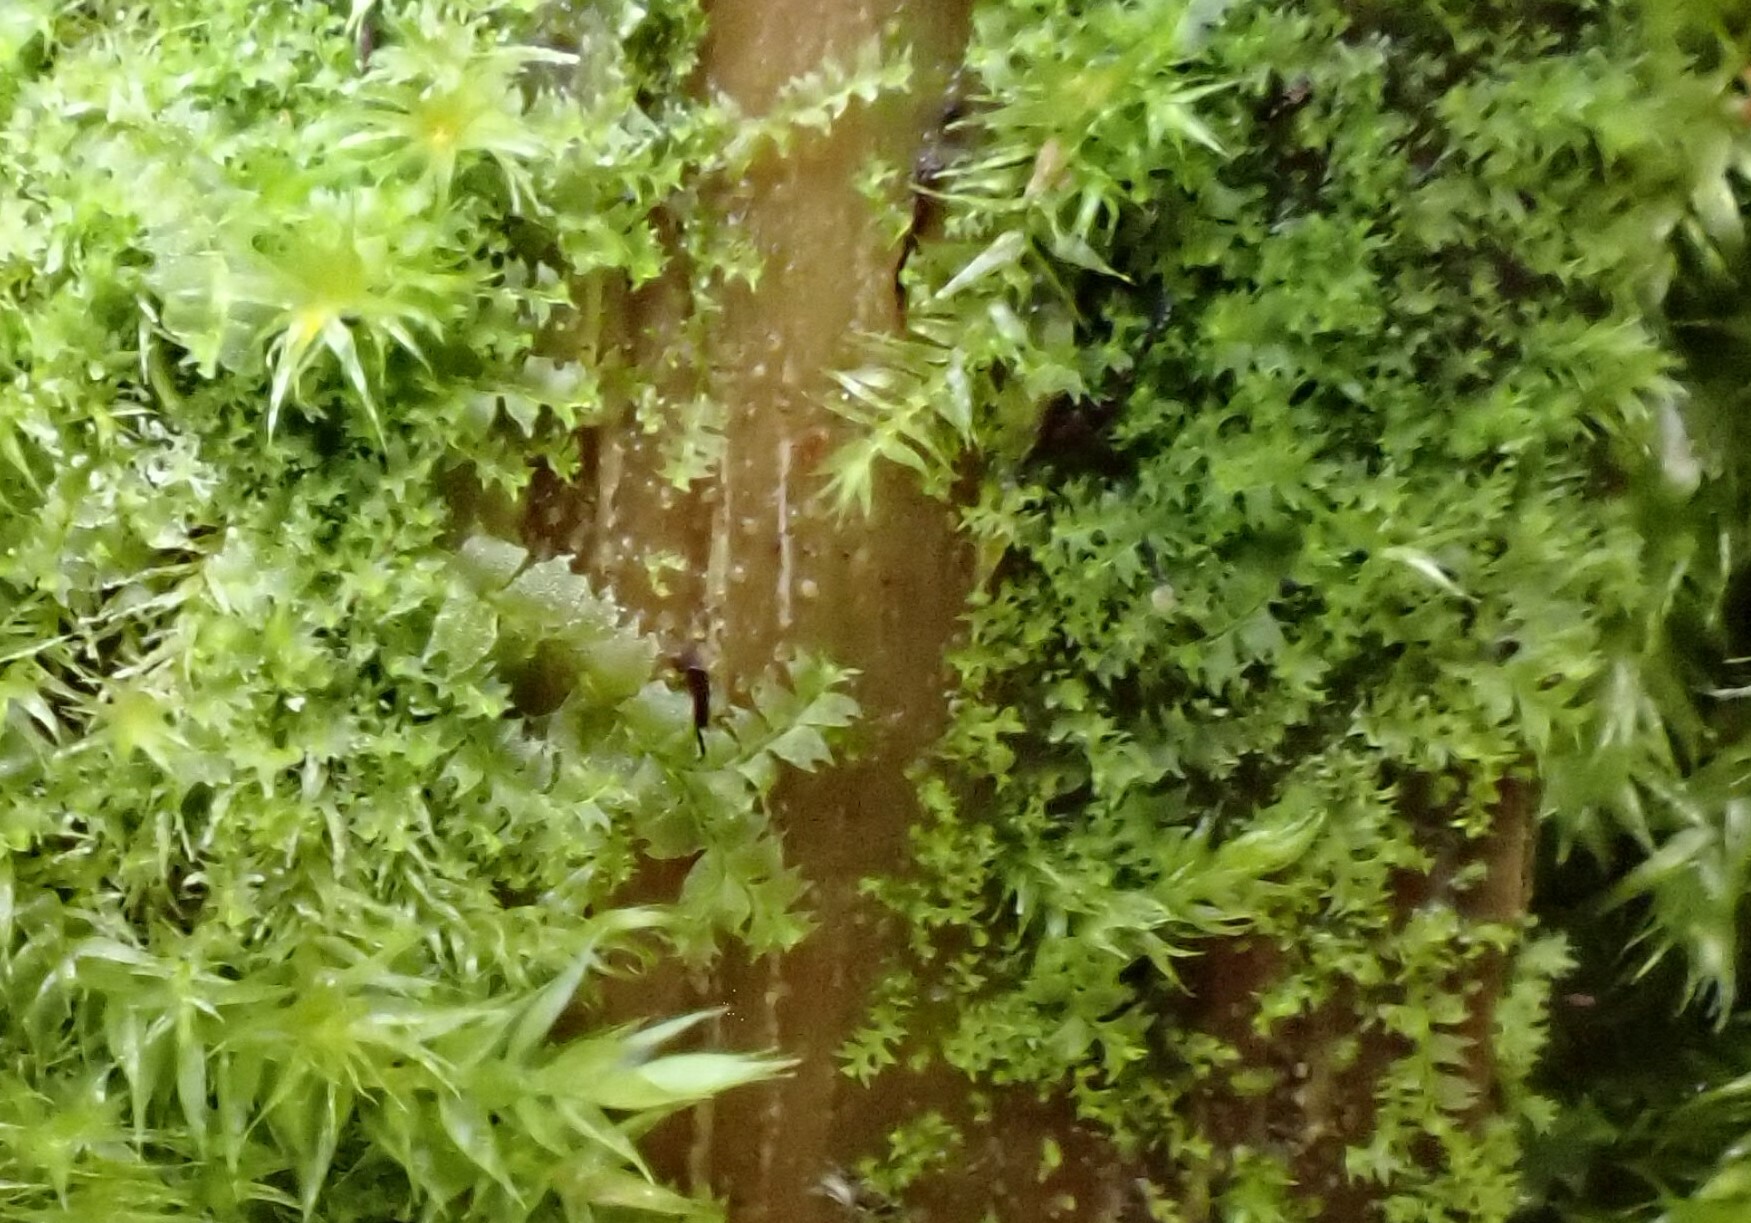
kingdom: Plantae
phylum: Marchantiophyta
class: Jungermanniopsida
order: Jungermanniales
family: Lophocoleaceae
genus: Lophocolea
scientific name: Lophocolea heterophylla
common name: Variable-leaved crestwort
